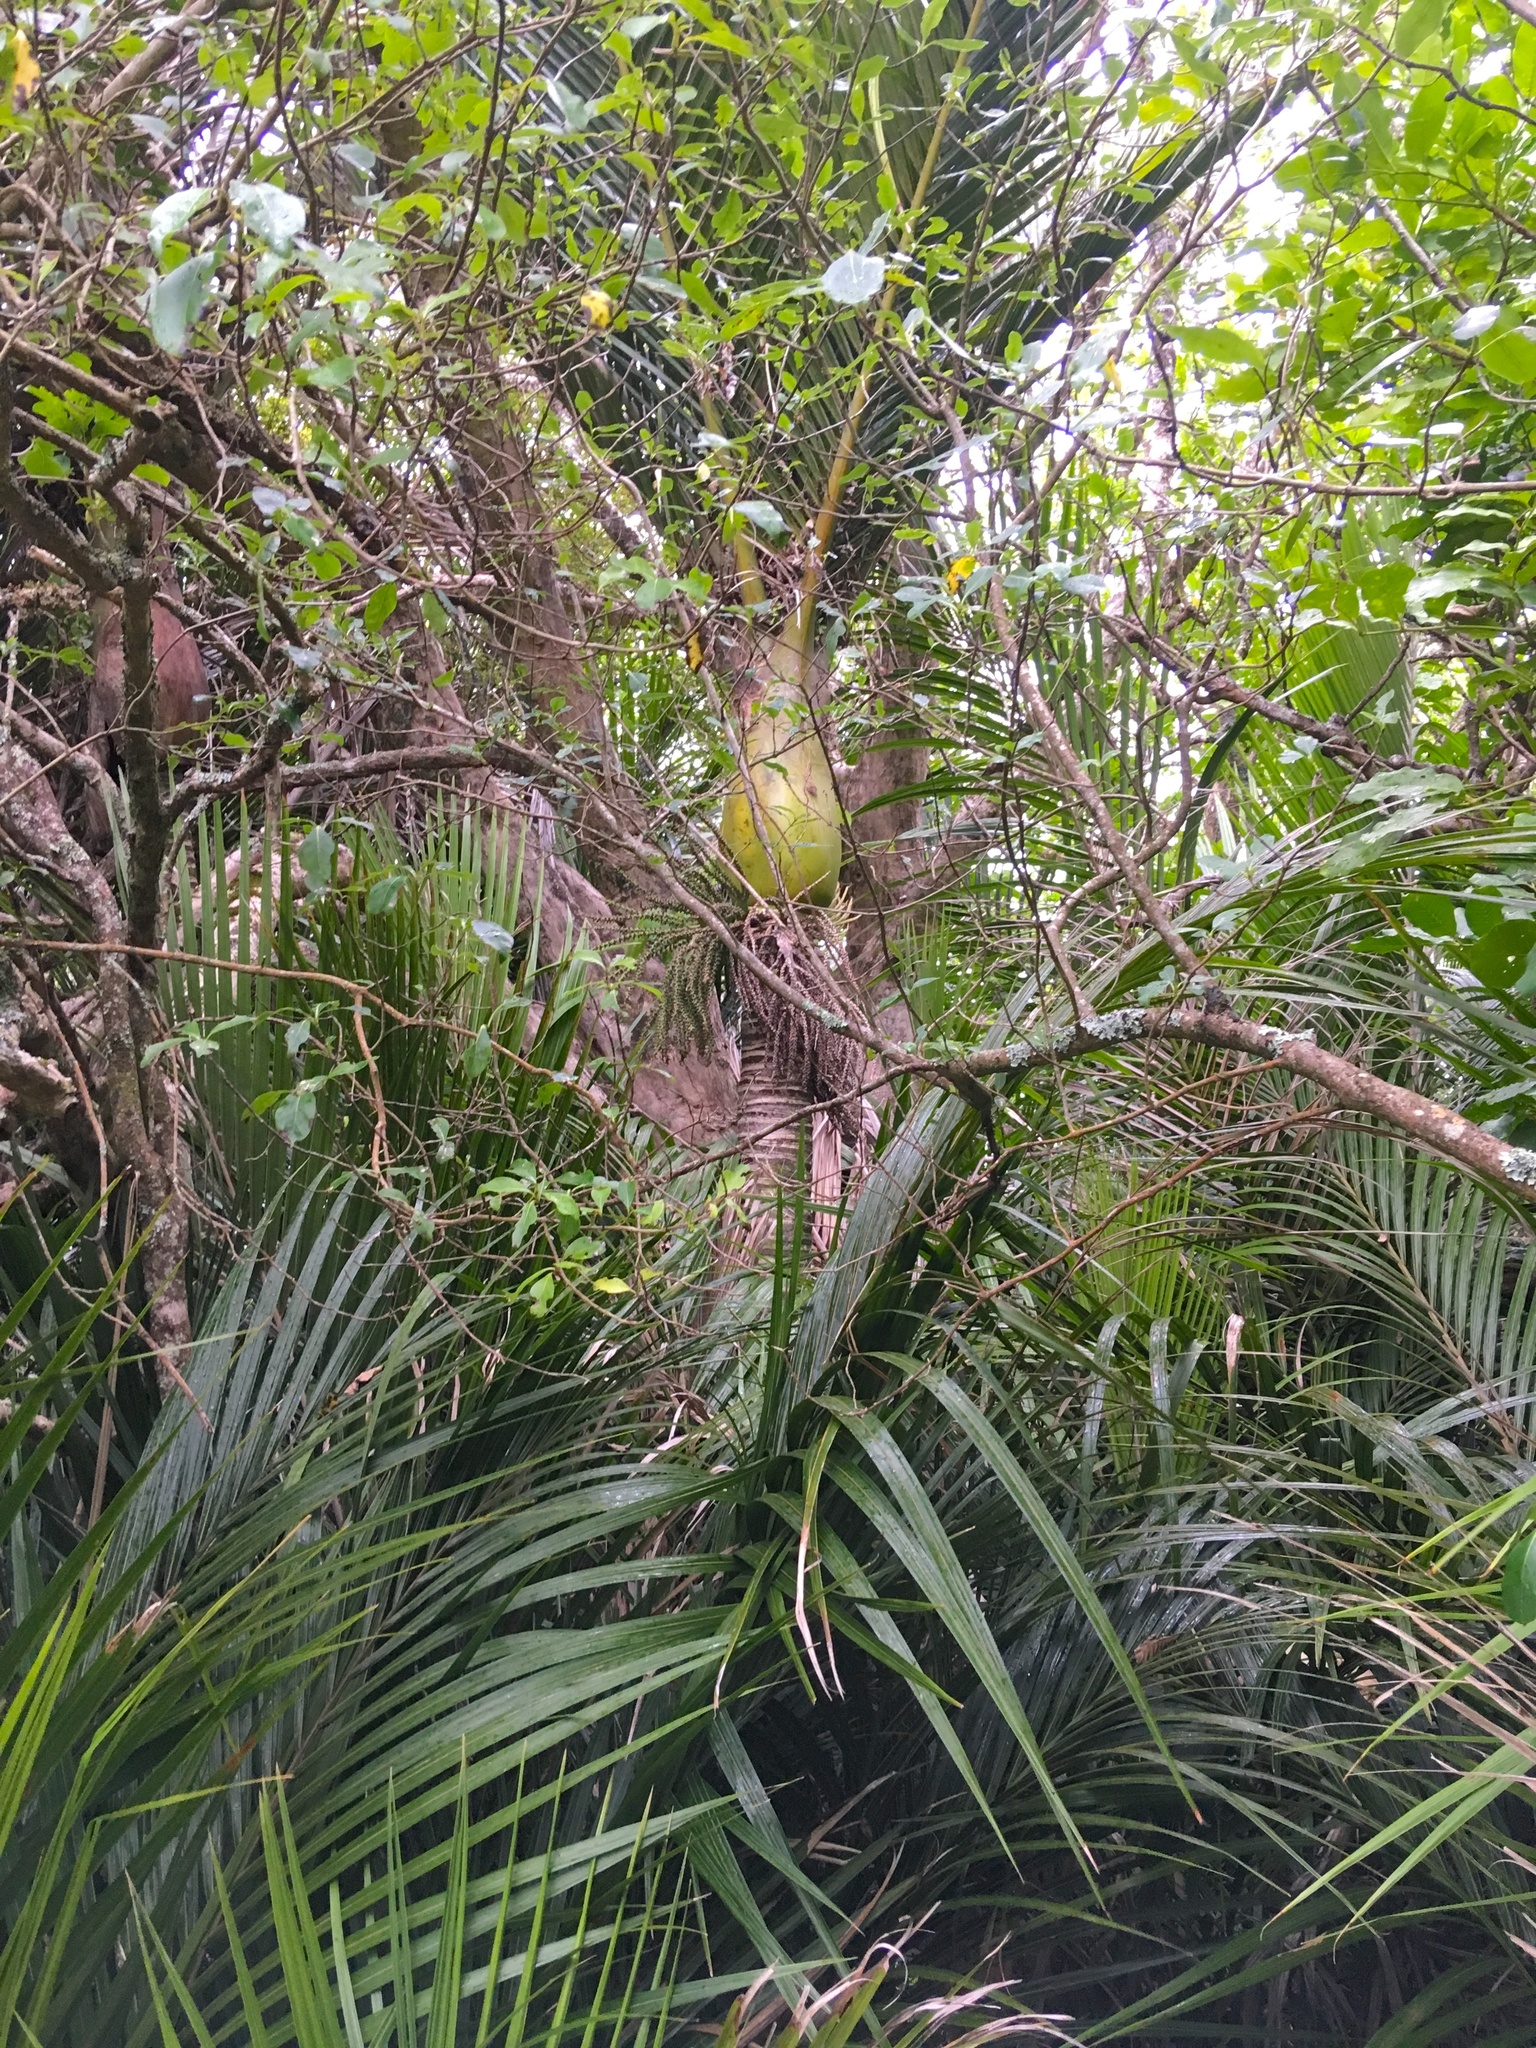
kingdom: Plantae
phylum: Tracheophyta
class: Liliopsida
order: Arecales
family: Arecaceae
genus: Rhopalostylis
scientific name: Rhopalostylis sapida
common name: Feather-duster palm
